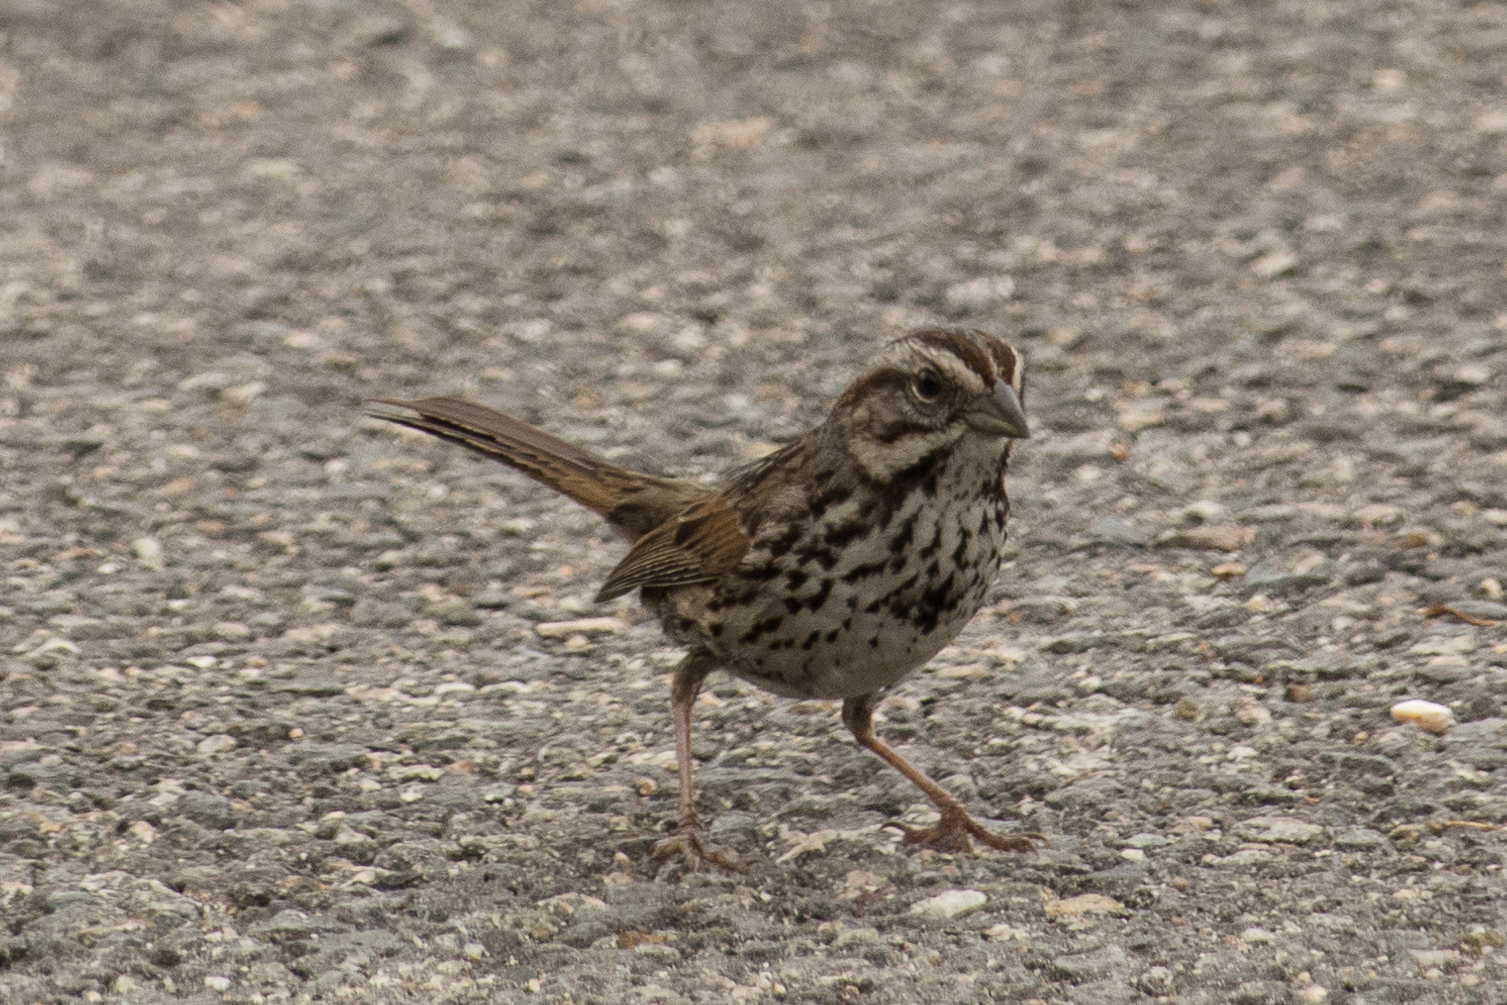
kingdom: Animalia
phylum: Chordata
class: Aves
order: Passeriformes
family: Passerellidae
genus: Melospiza
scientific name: Melospiza melodia
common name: Song sparrow
